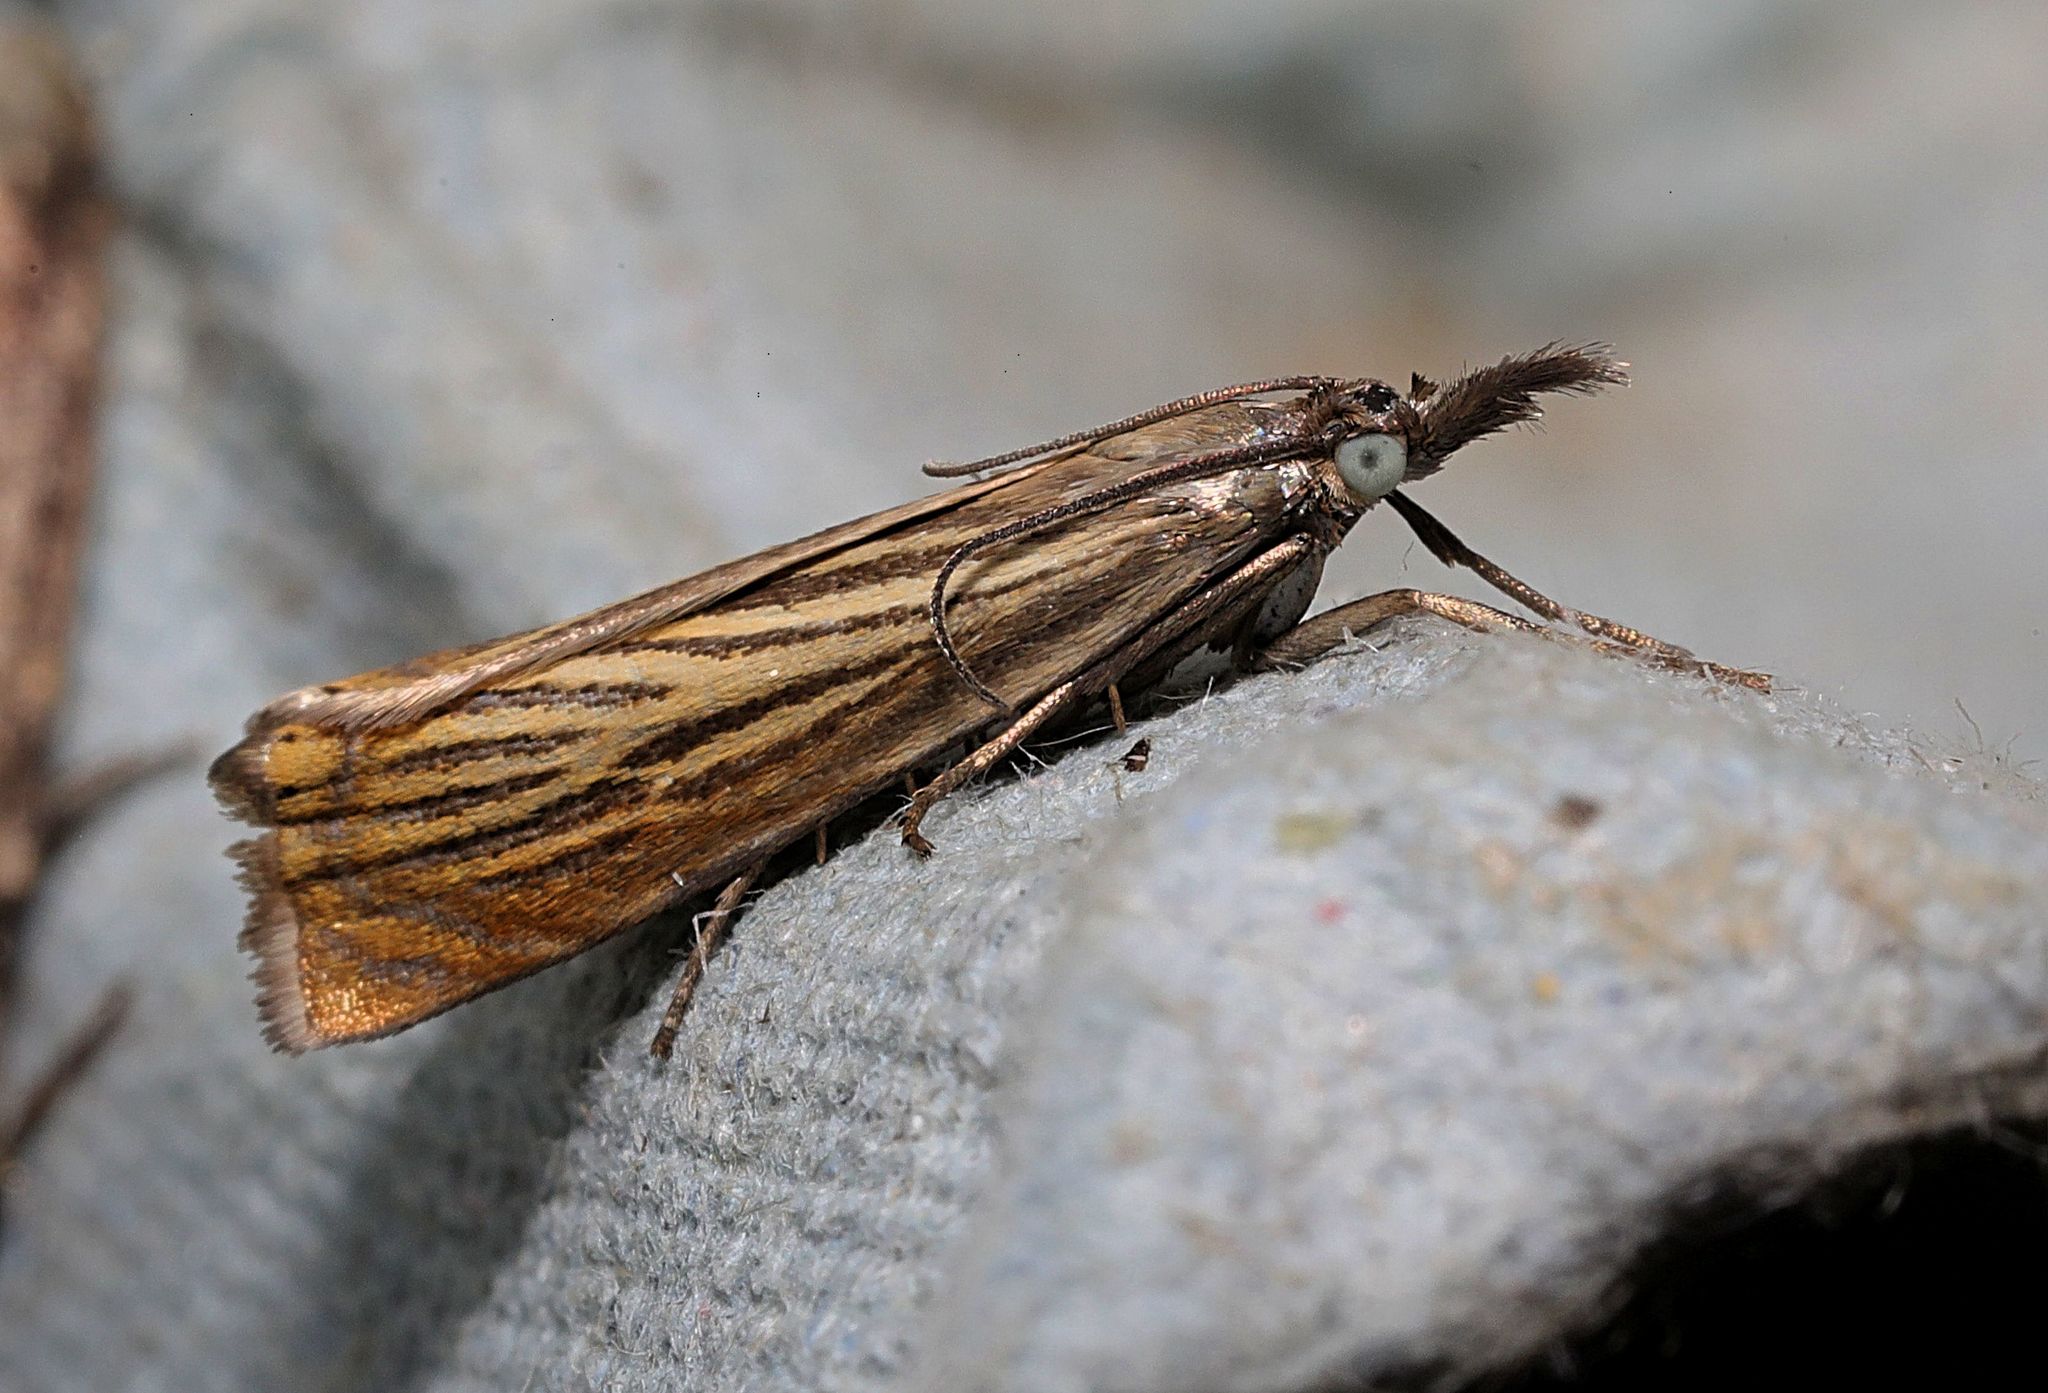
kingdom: Animalia
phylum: Arthropoda
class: Insecta
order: Lepidoptera
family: Crambidae
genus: Chrysoteuchia
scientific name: Chrysoteuchia culmella
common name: Garden grass-veneer
